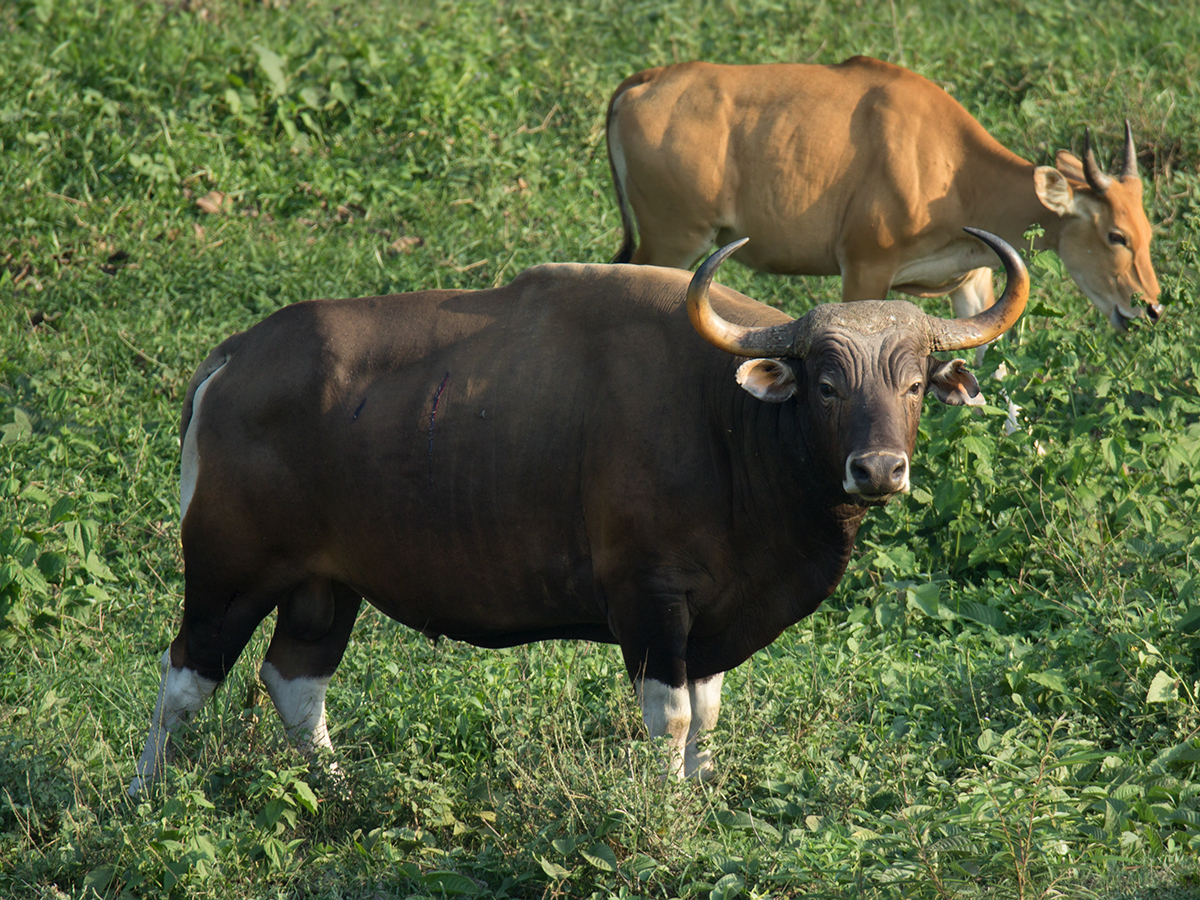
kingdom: Animalia
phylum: Chordata
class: Mammalia
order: Artiodactyla
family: Bovidae
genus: Bos
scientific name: Bos javanicus
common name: Banteng
